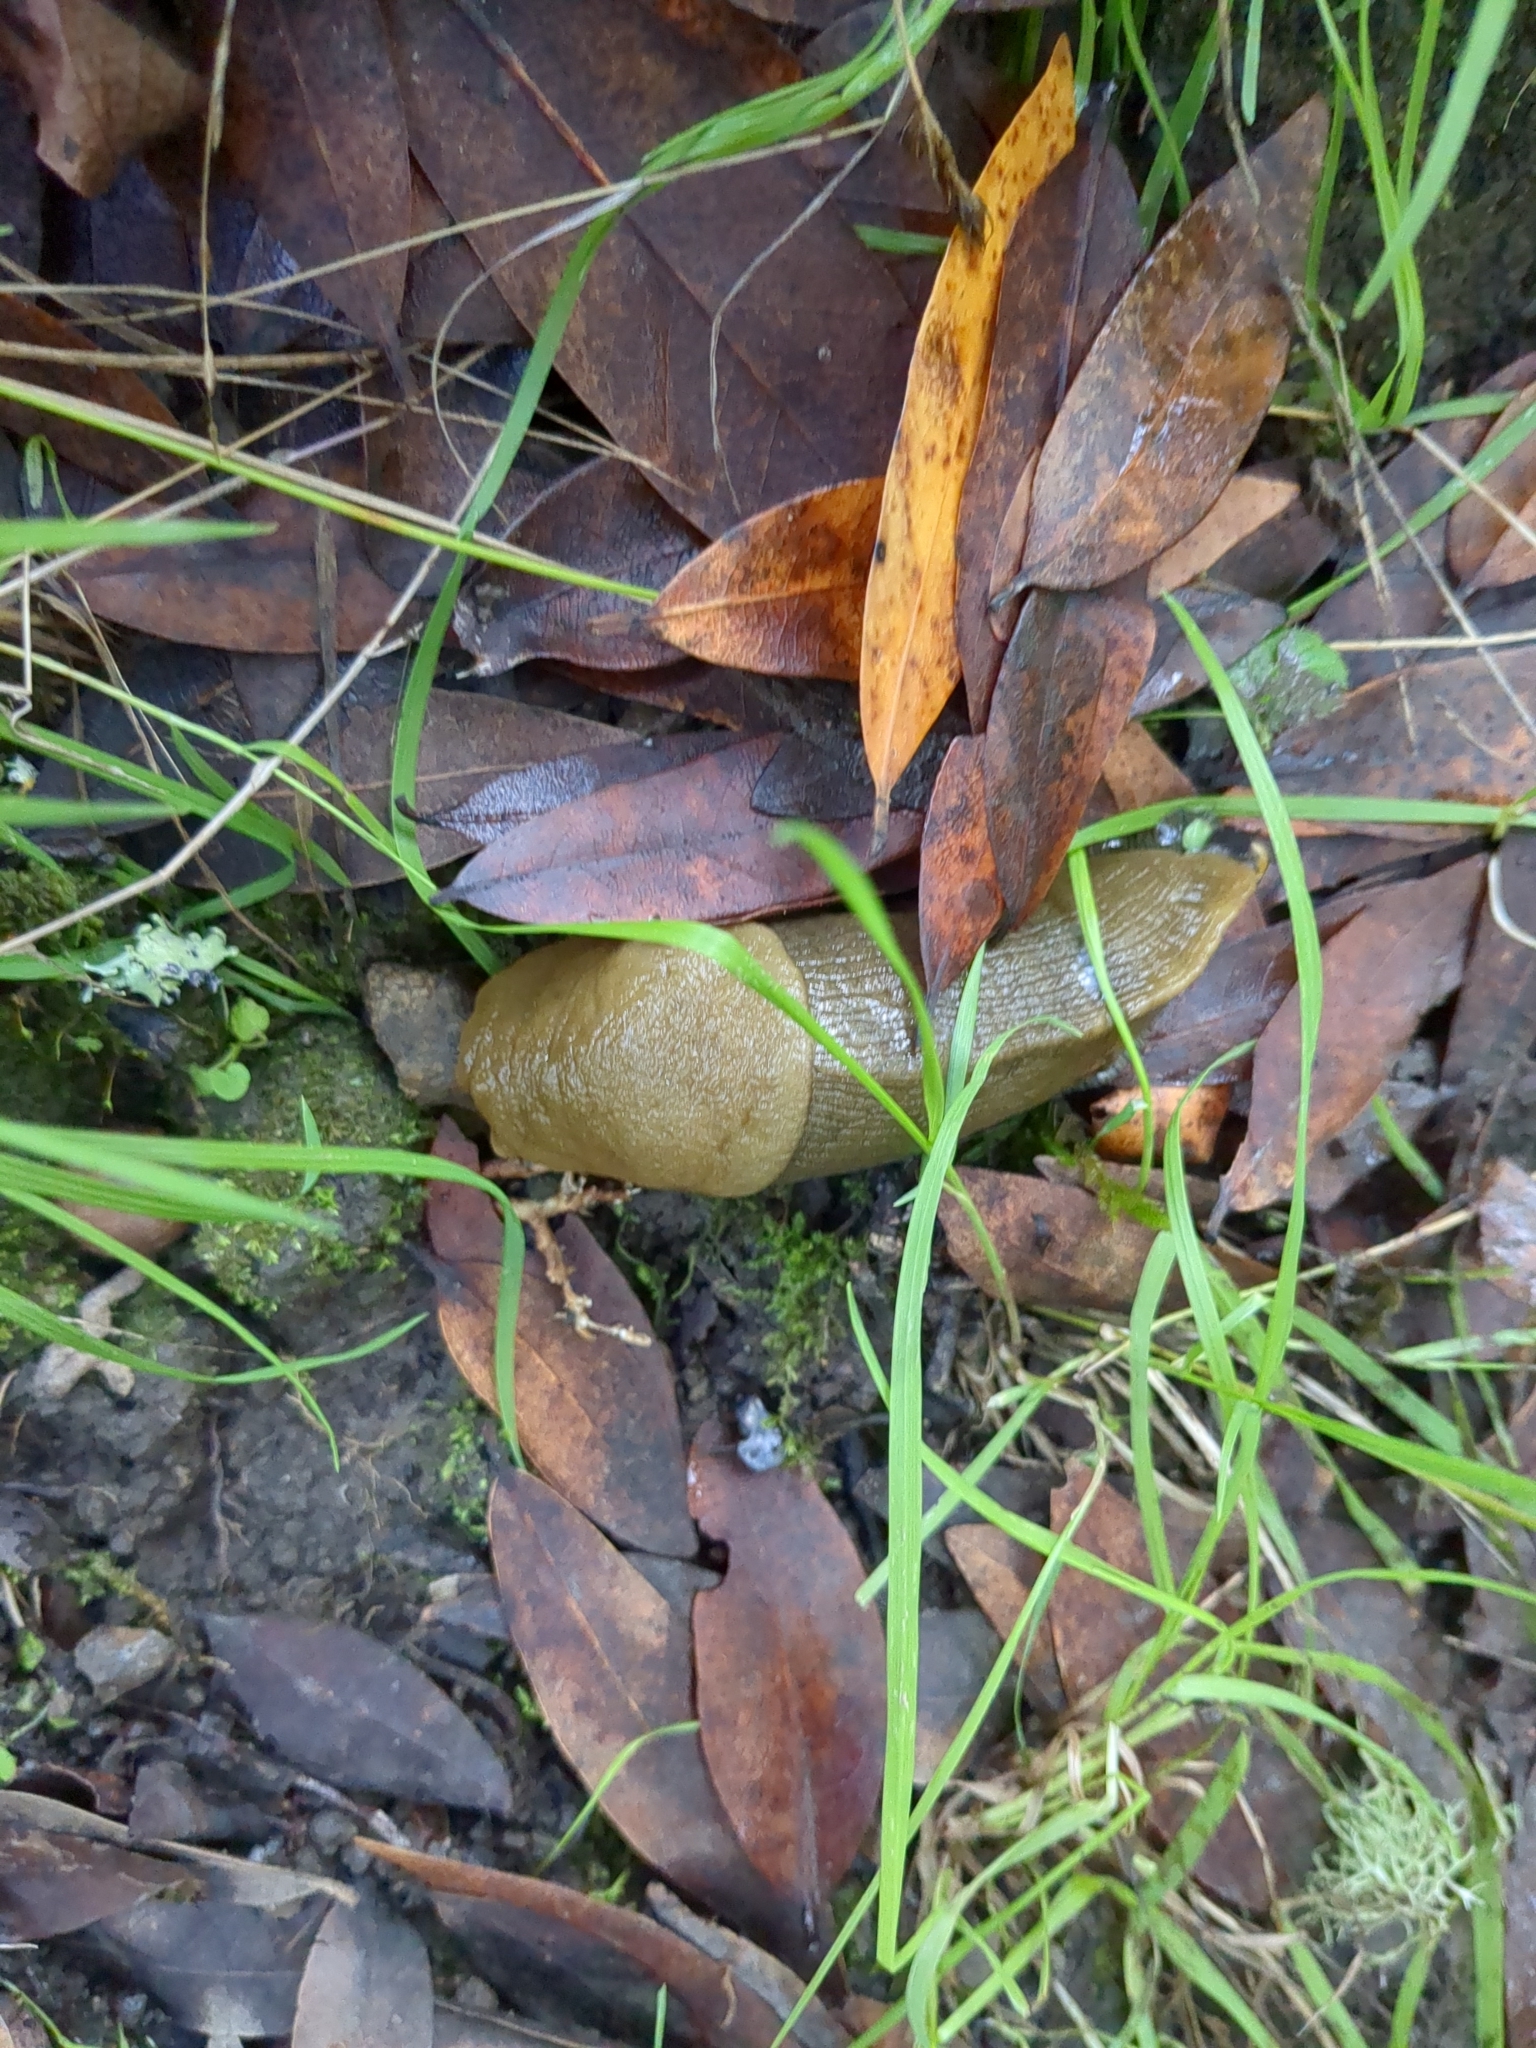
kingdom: Animalia
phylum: Mollusca
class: Gastropoda
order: Stylommatophora
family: Ariolimacidae
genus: Ariolimax
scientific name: Ariolimax buttoni
